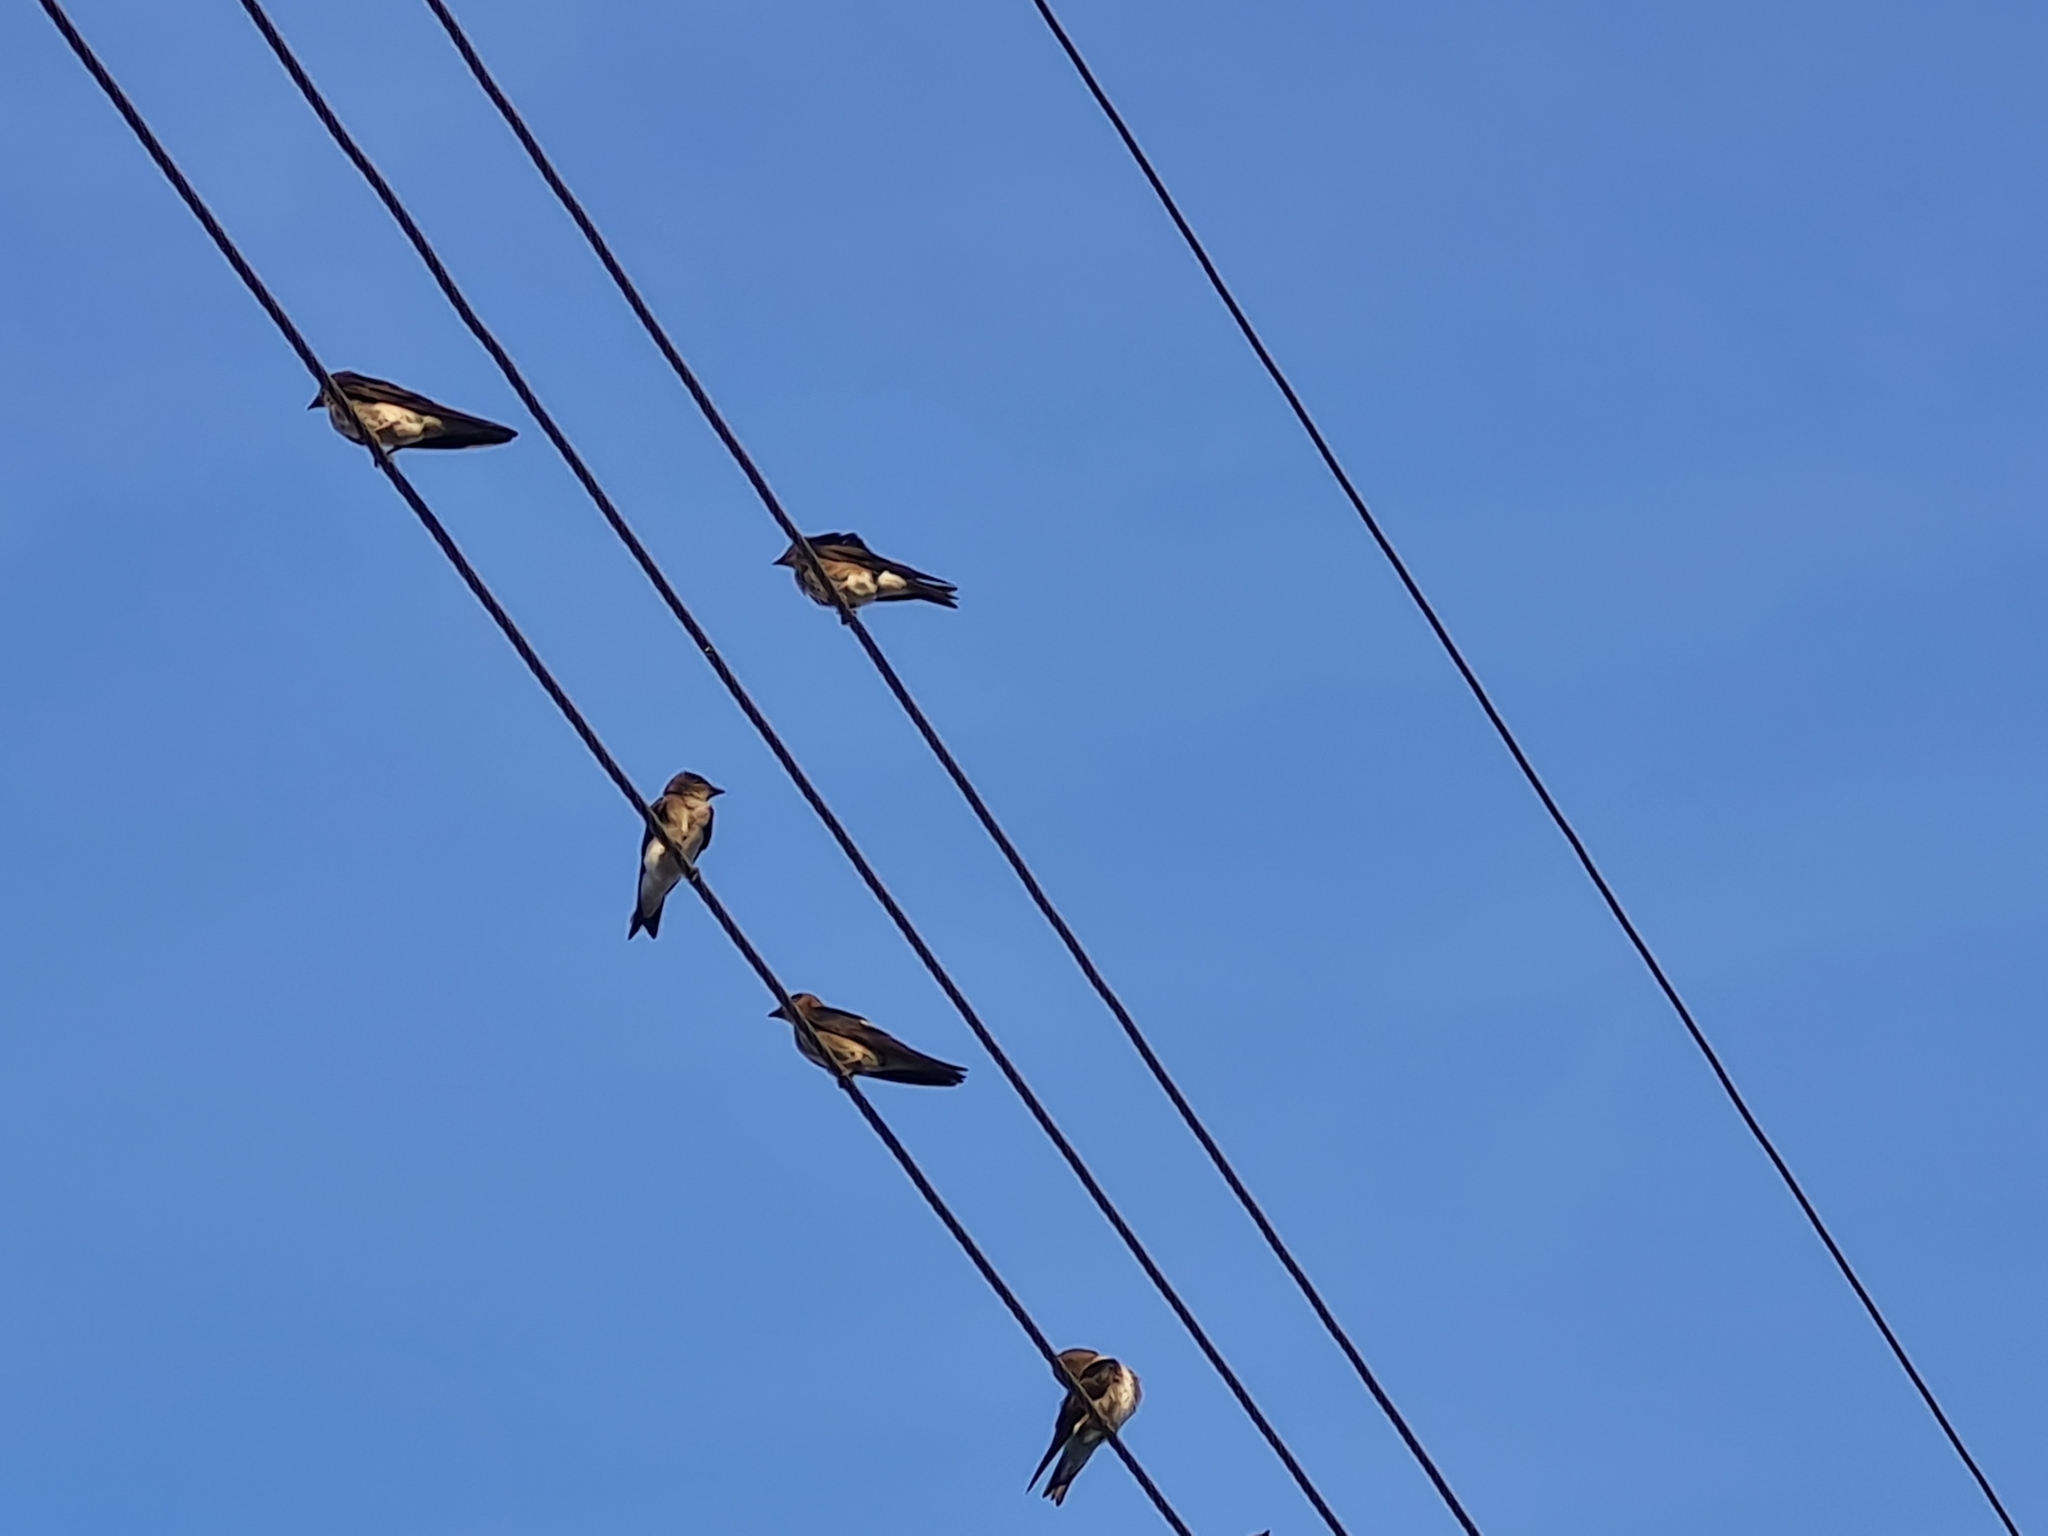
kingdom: Animalia
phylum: Chordata
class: Aves
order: Passeriformes
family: Hirundinidae
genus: Progne
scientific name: Progne chalybea
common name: Grey-breasted martin
